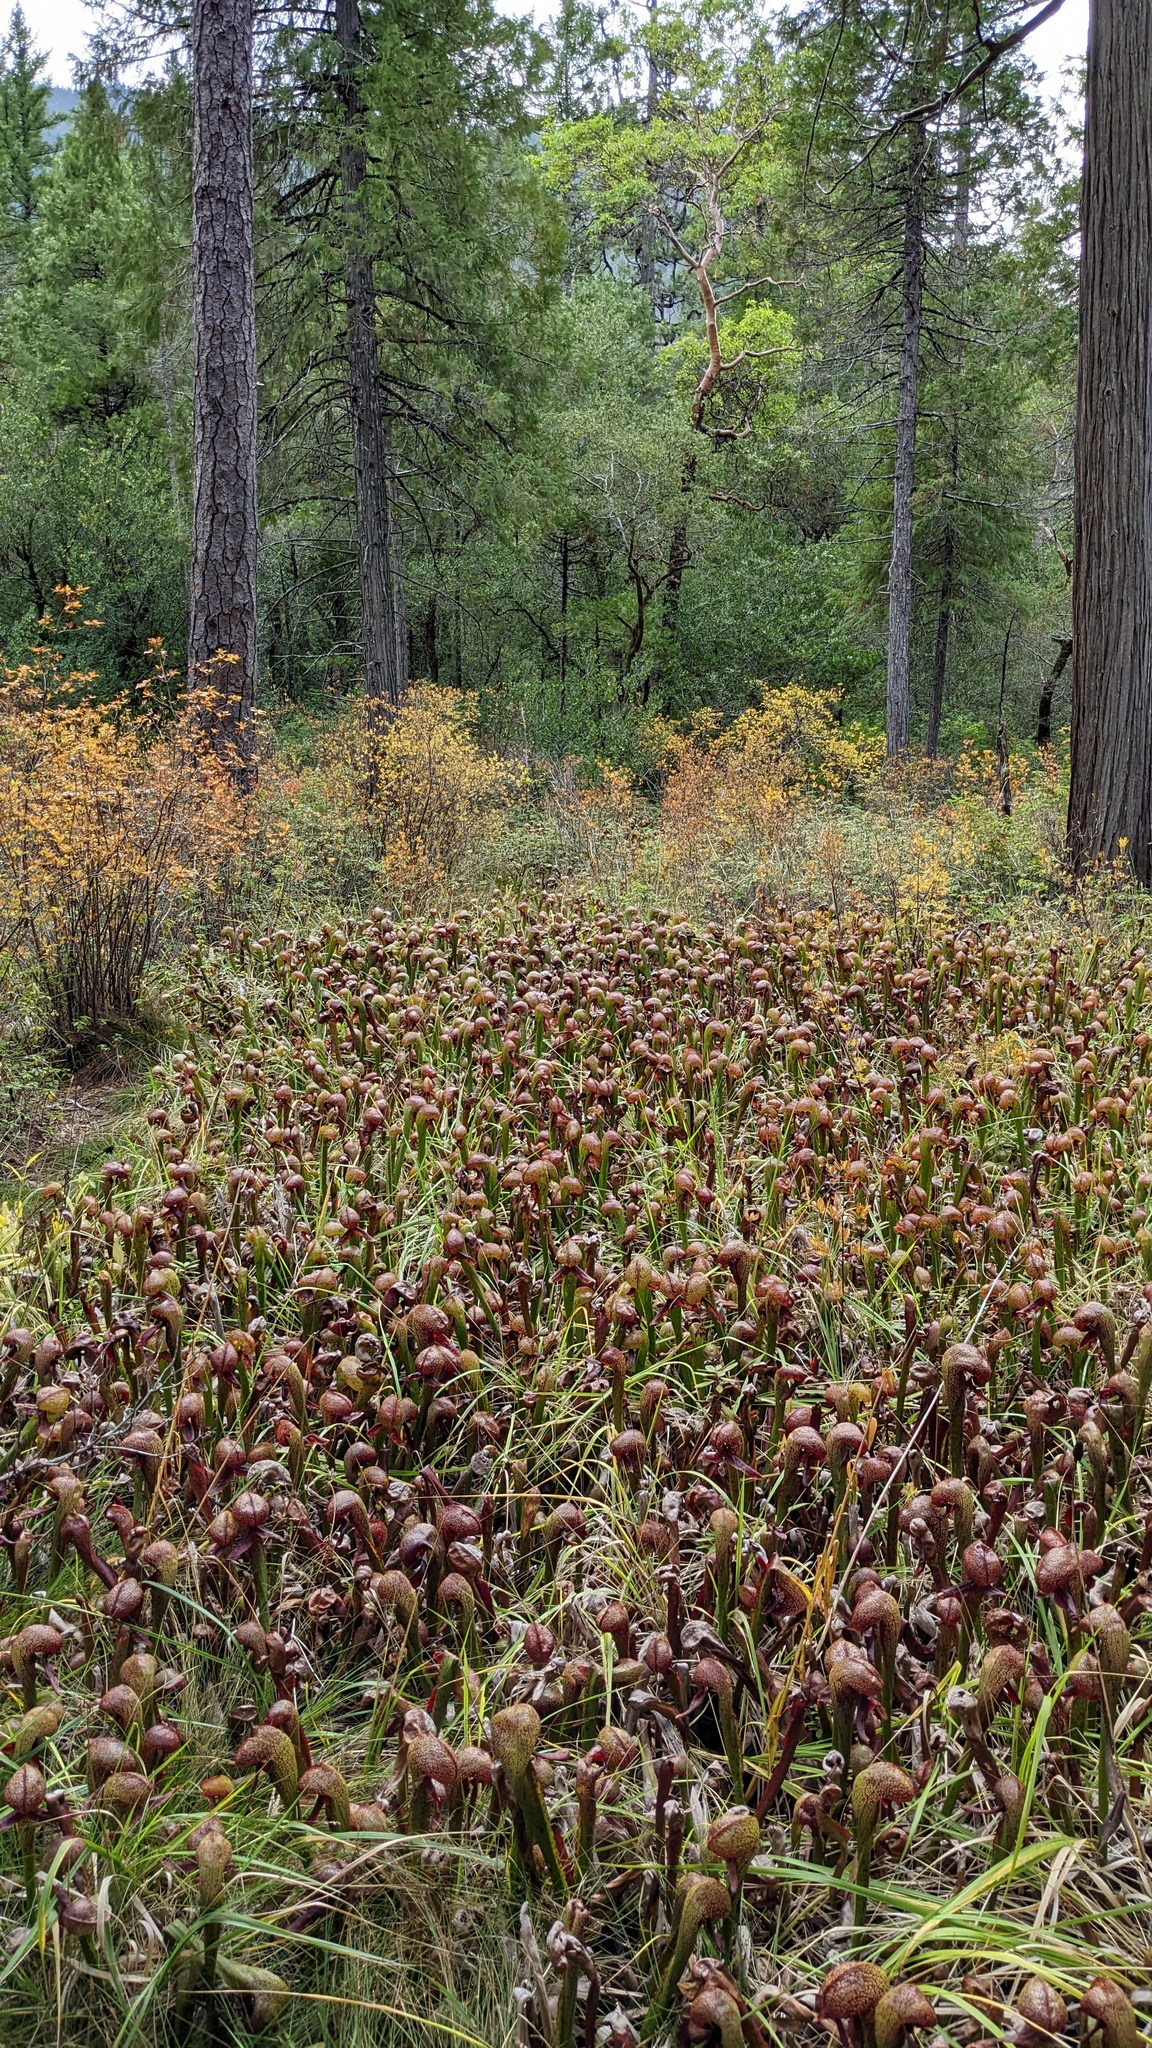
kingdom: Plantae
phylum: Tracheophyta
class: Magnoliopsida
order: Ericales
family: Sarraceniaceae
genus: Darlingtonia
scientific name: Darlingtonia californica
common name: California pitcher plant
